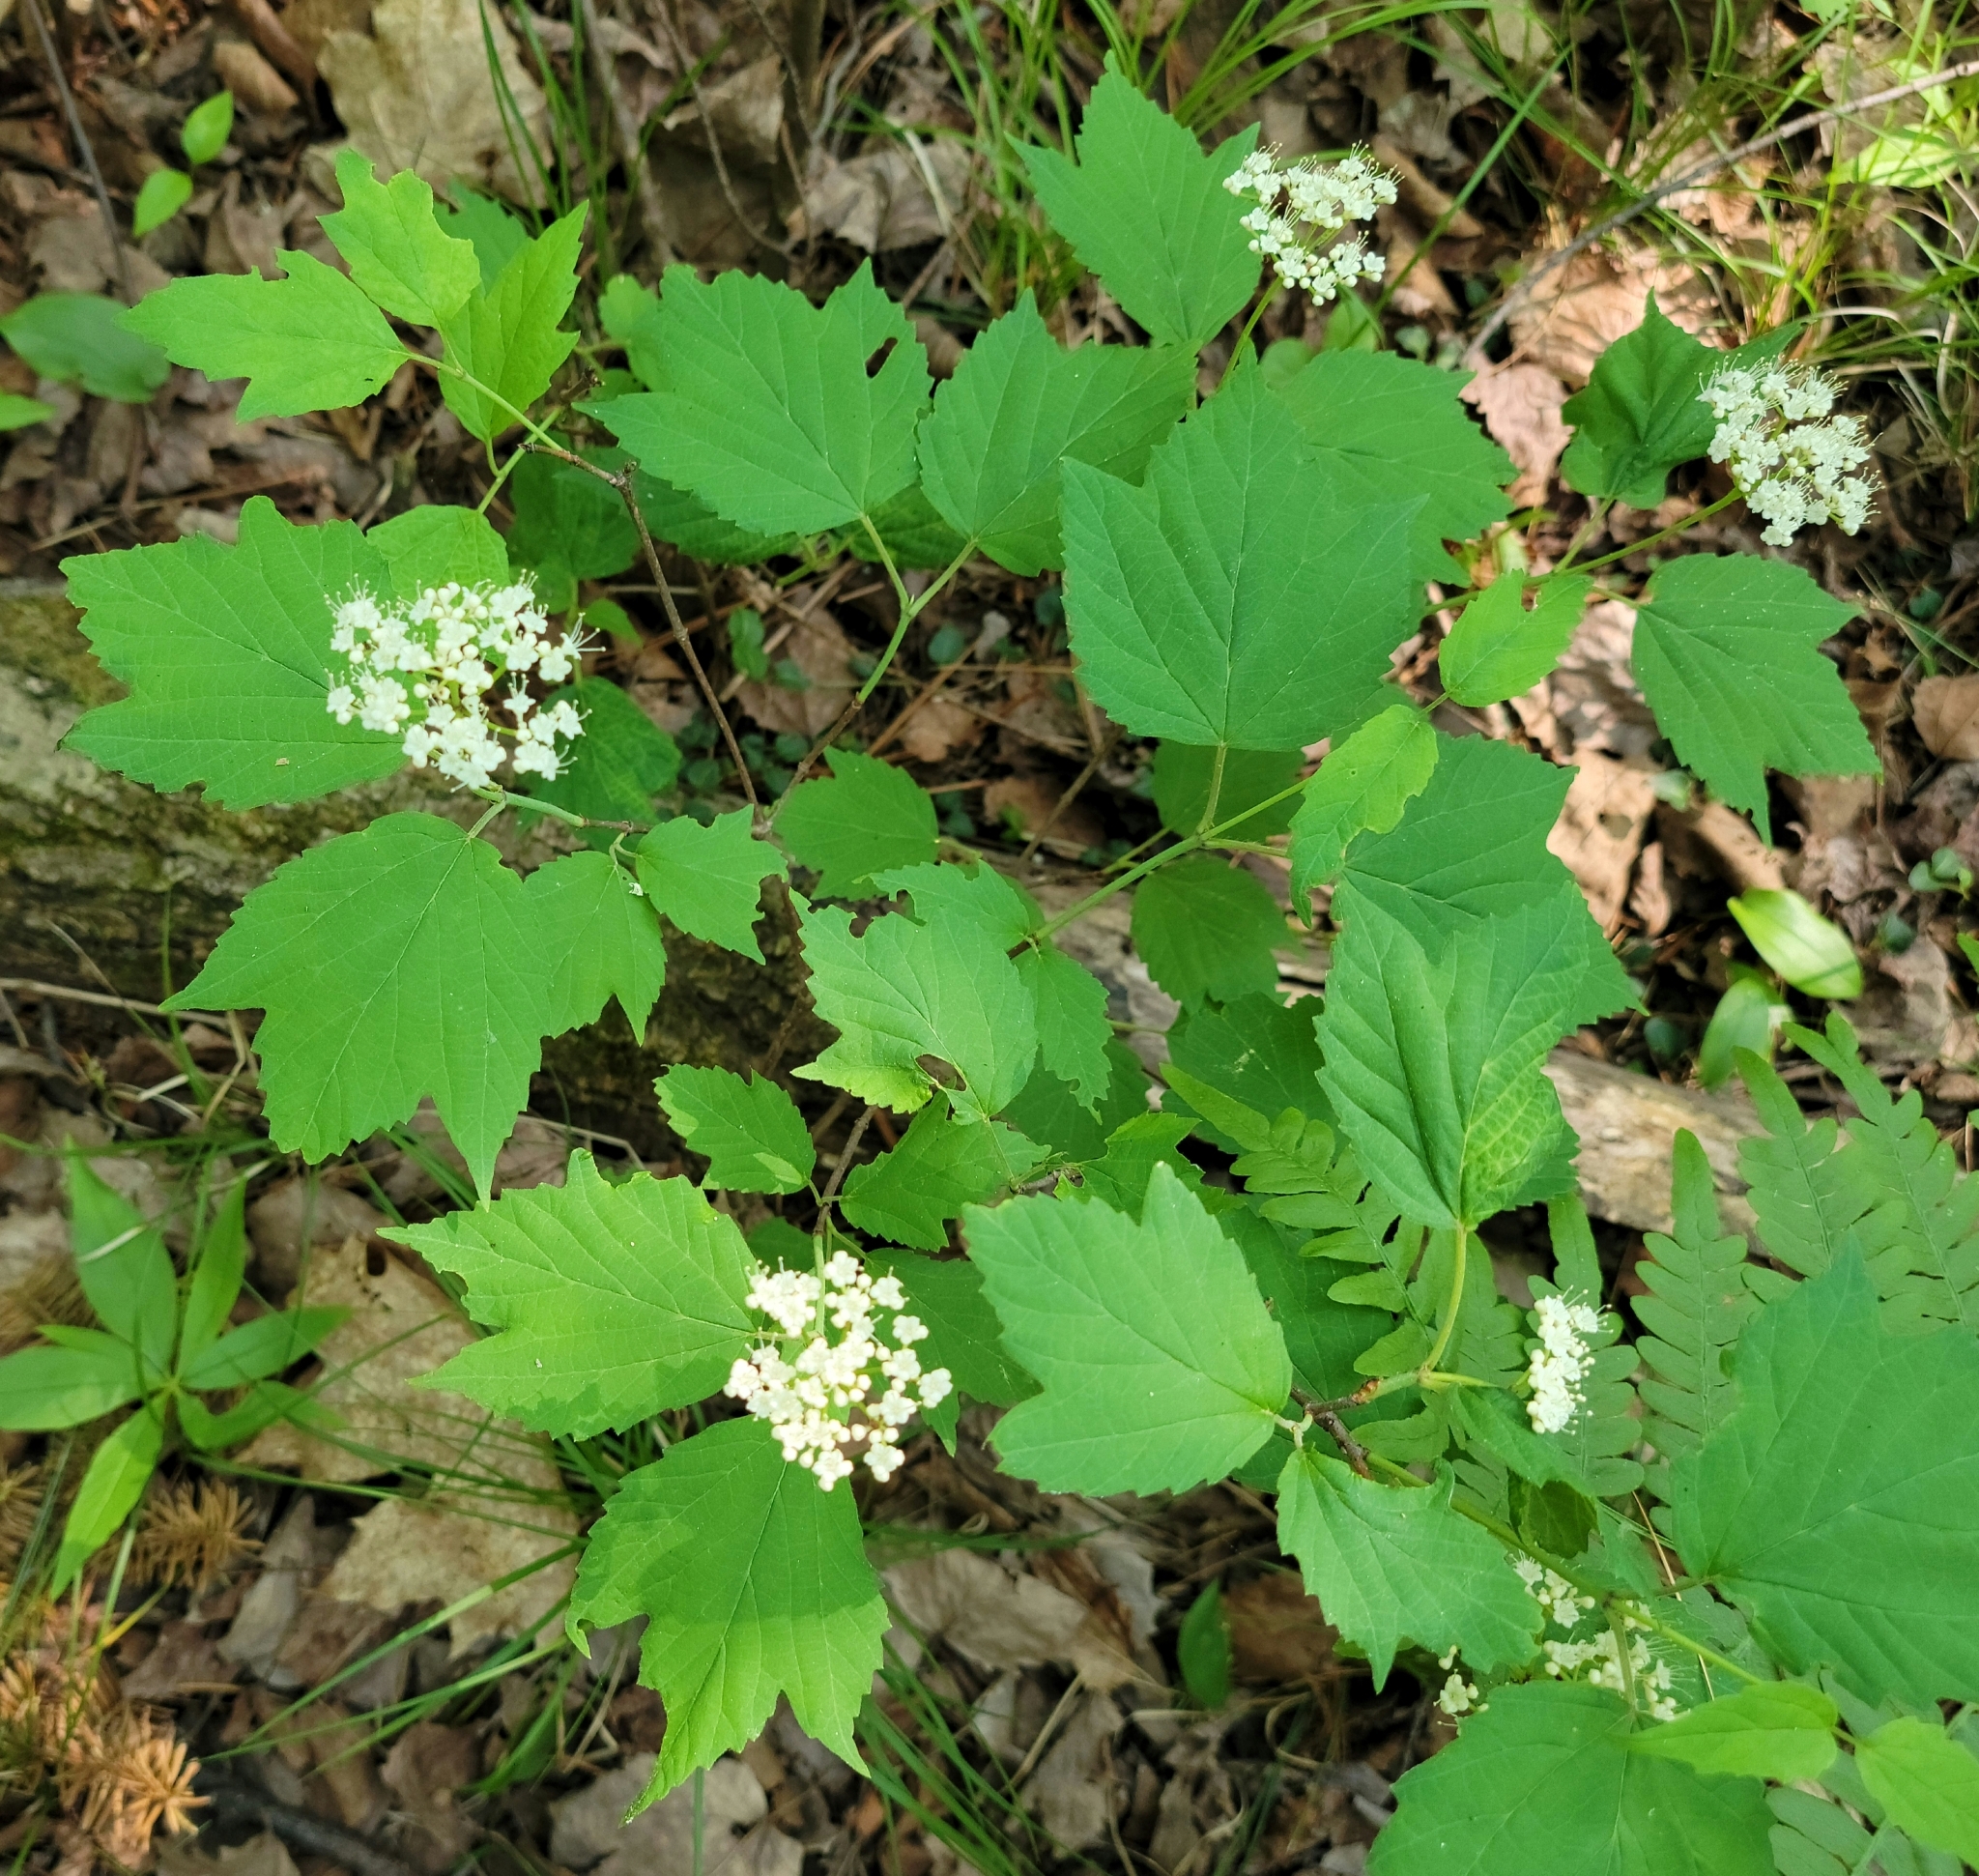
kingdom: Plantae
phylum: Tracheophyta
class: Magnoliopsida
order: Dipsacales
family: Viburnaceae
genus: Viburnum
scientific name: Viburnum acerifolium
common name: Dockmackie
